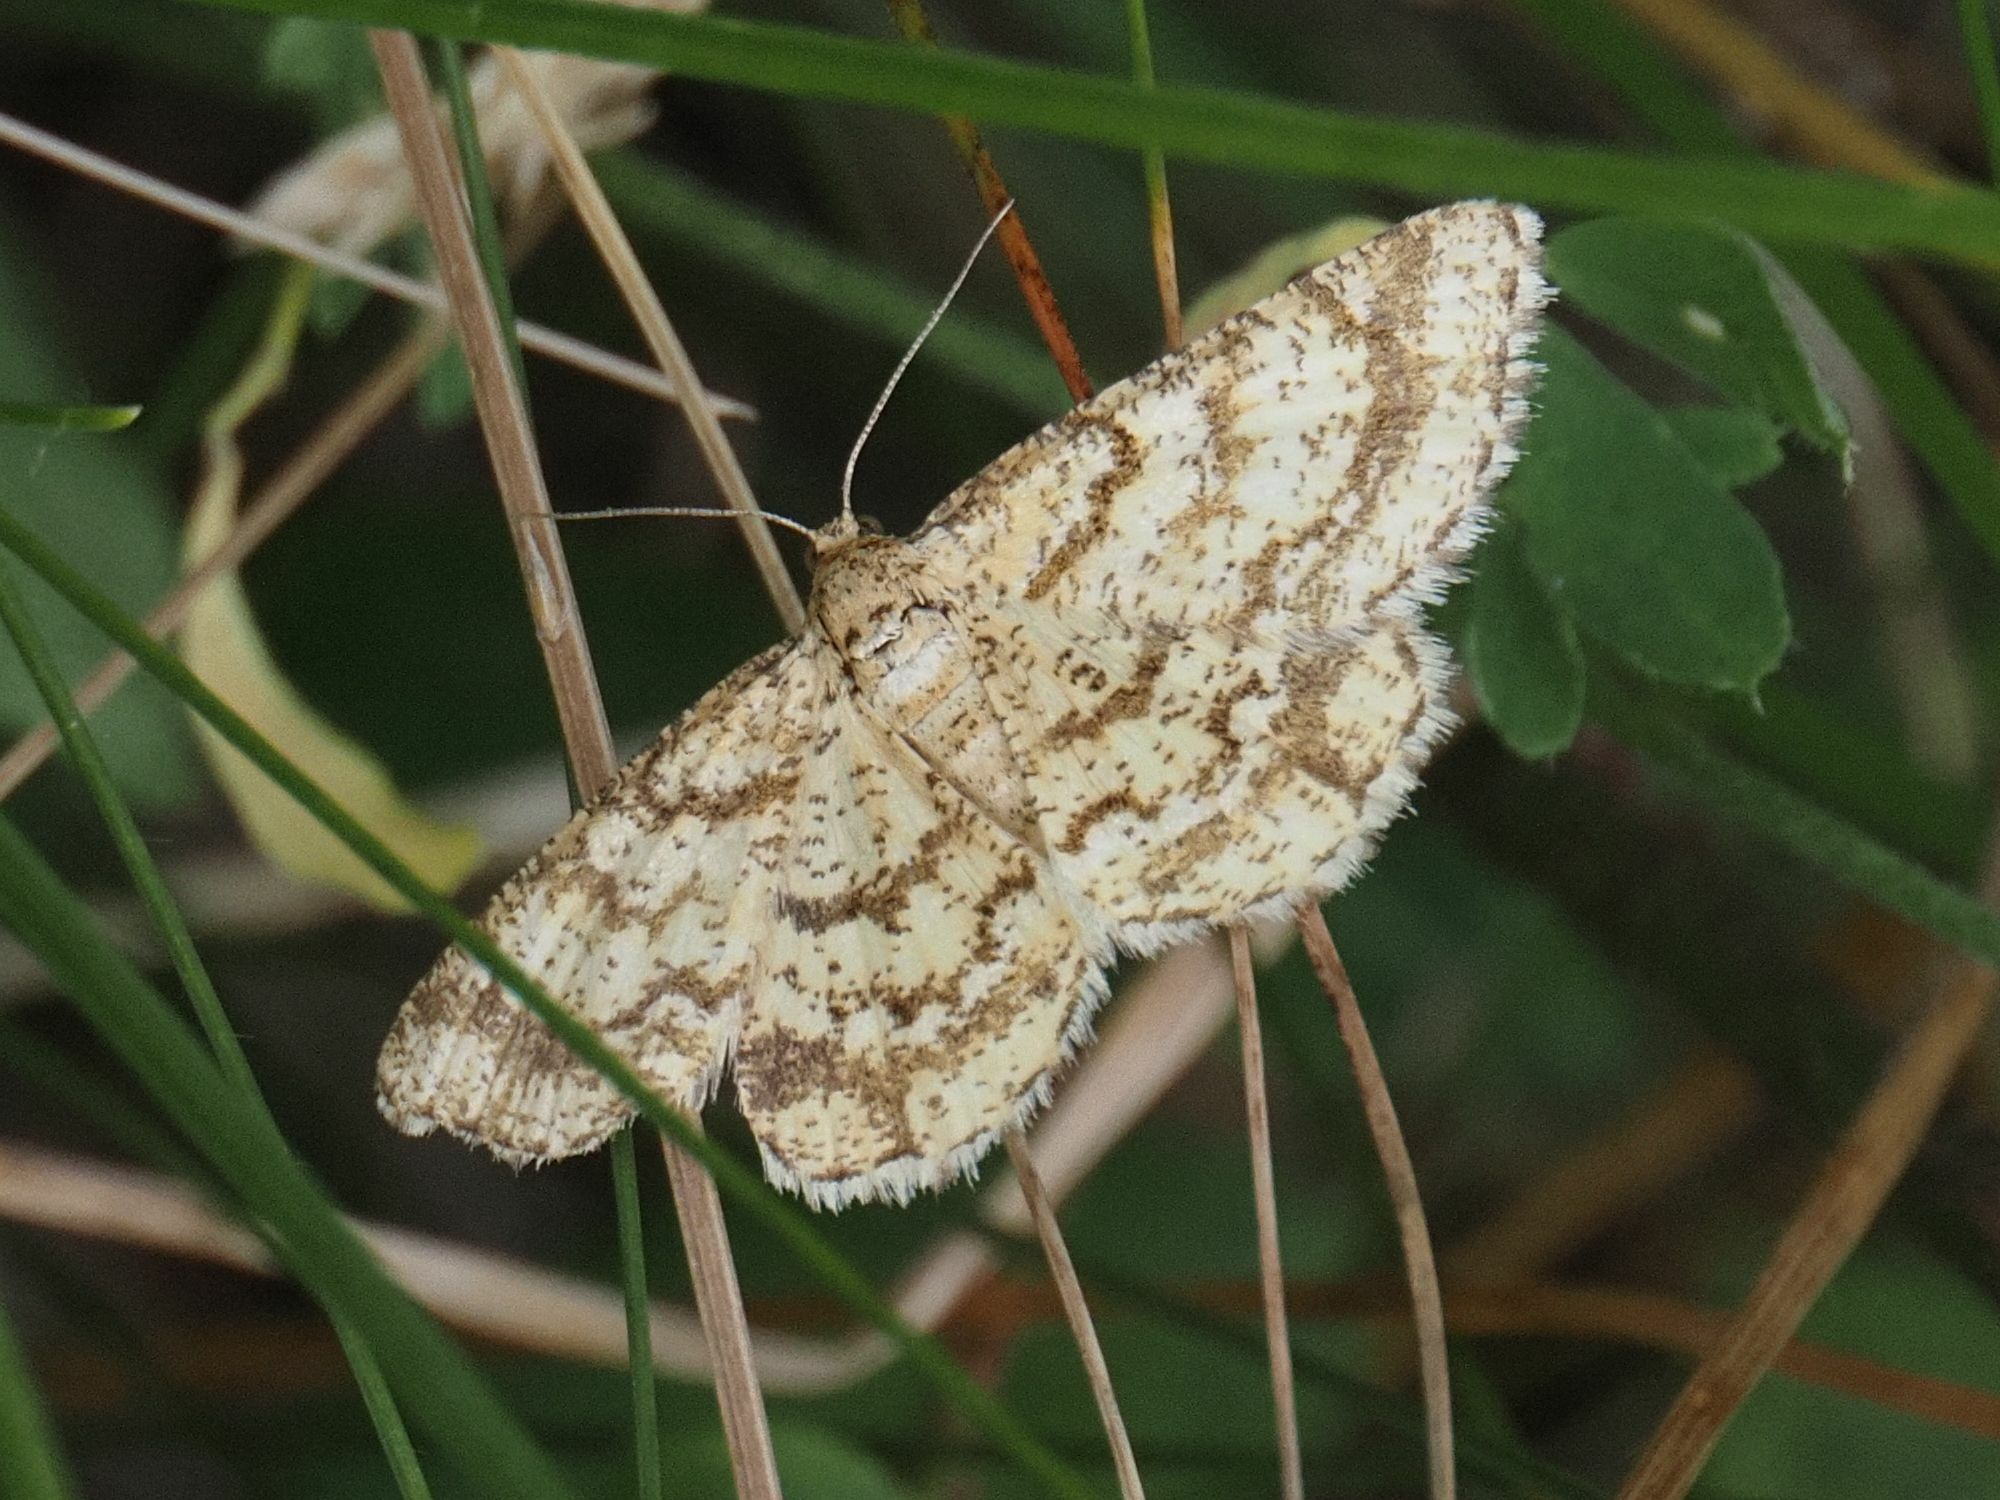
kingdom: Animalia
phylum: Arthropoda
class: Insecta
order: Lepidoptera
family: Geometridae
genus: Heliomata
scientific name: Heliomata glarearia
